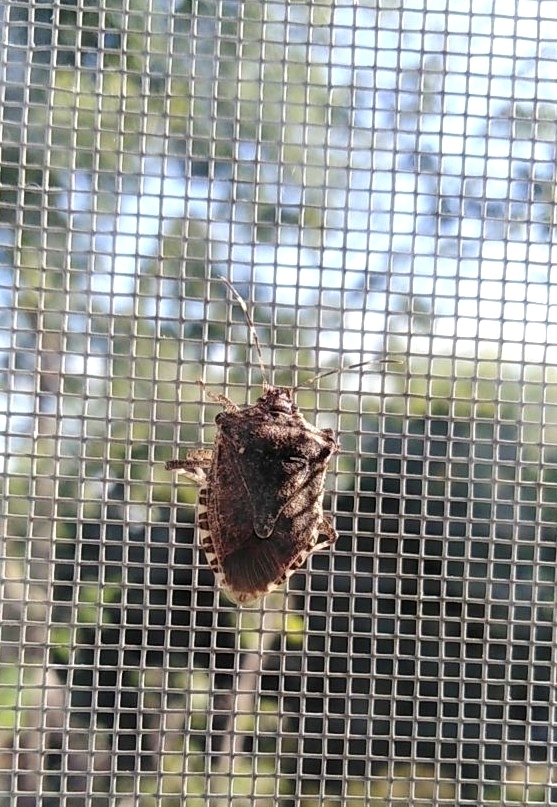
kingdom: Animalia
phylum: Arthropoda
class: Insecta
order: Hemiptera
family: Pentatomidae
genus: Halyomorpha
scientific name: Halyomorpha halys
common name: Brown marmorated stink bug
